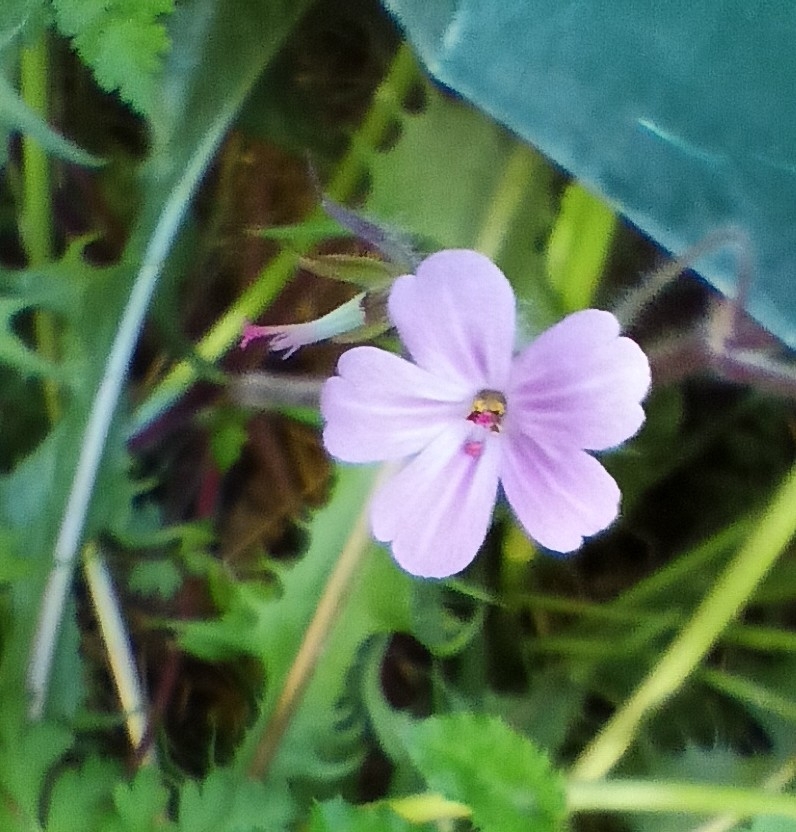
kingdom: Plantae
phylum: Tracheophyta
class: Magnoliopsida
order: Geraniales
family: Geraniaceae
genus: Geranium
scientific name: Geranium robertianum
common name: Herb-robert
